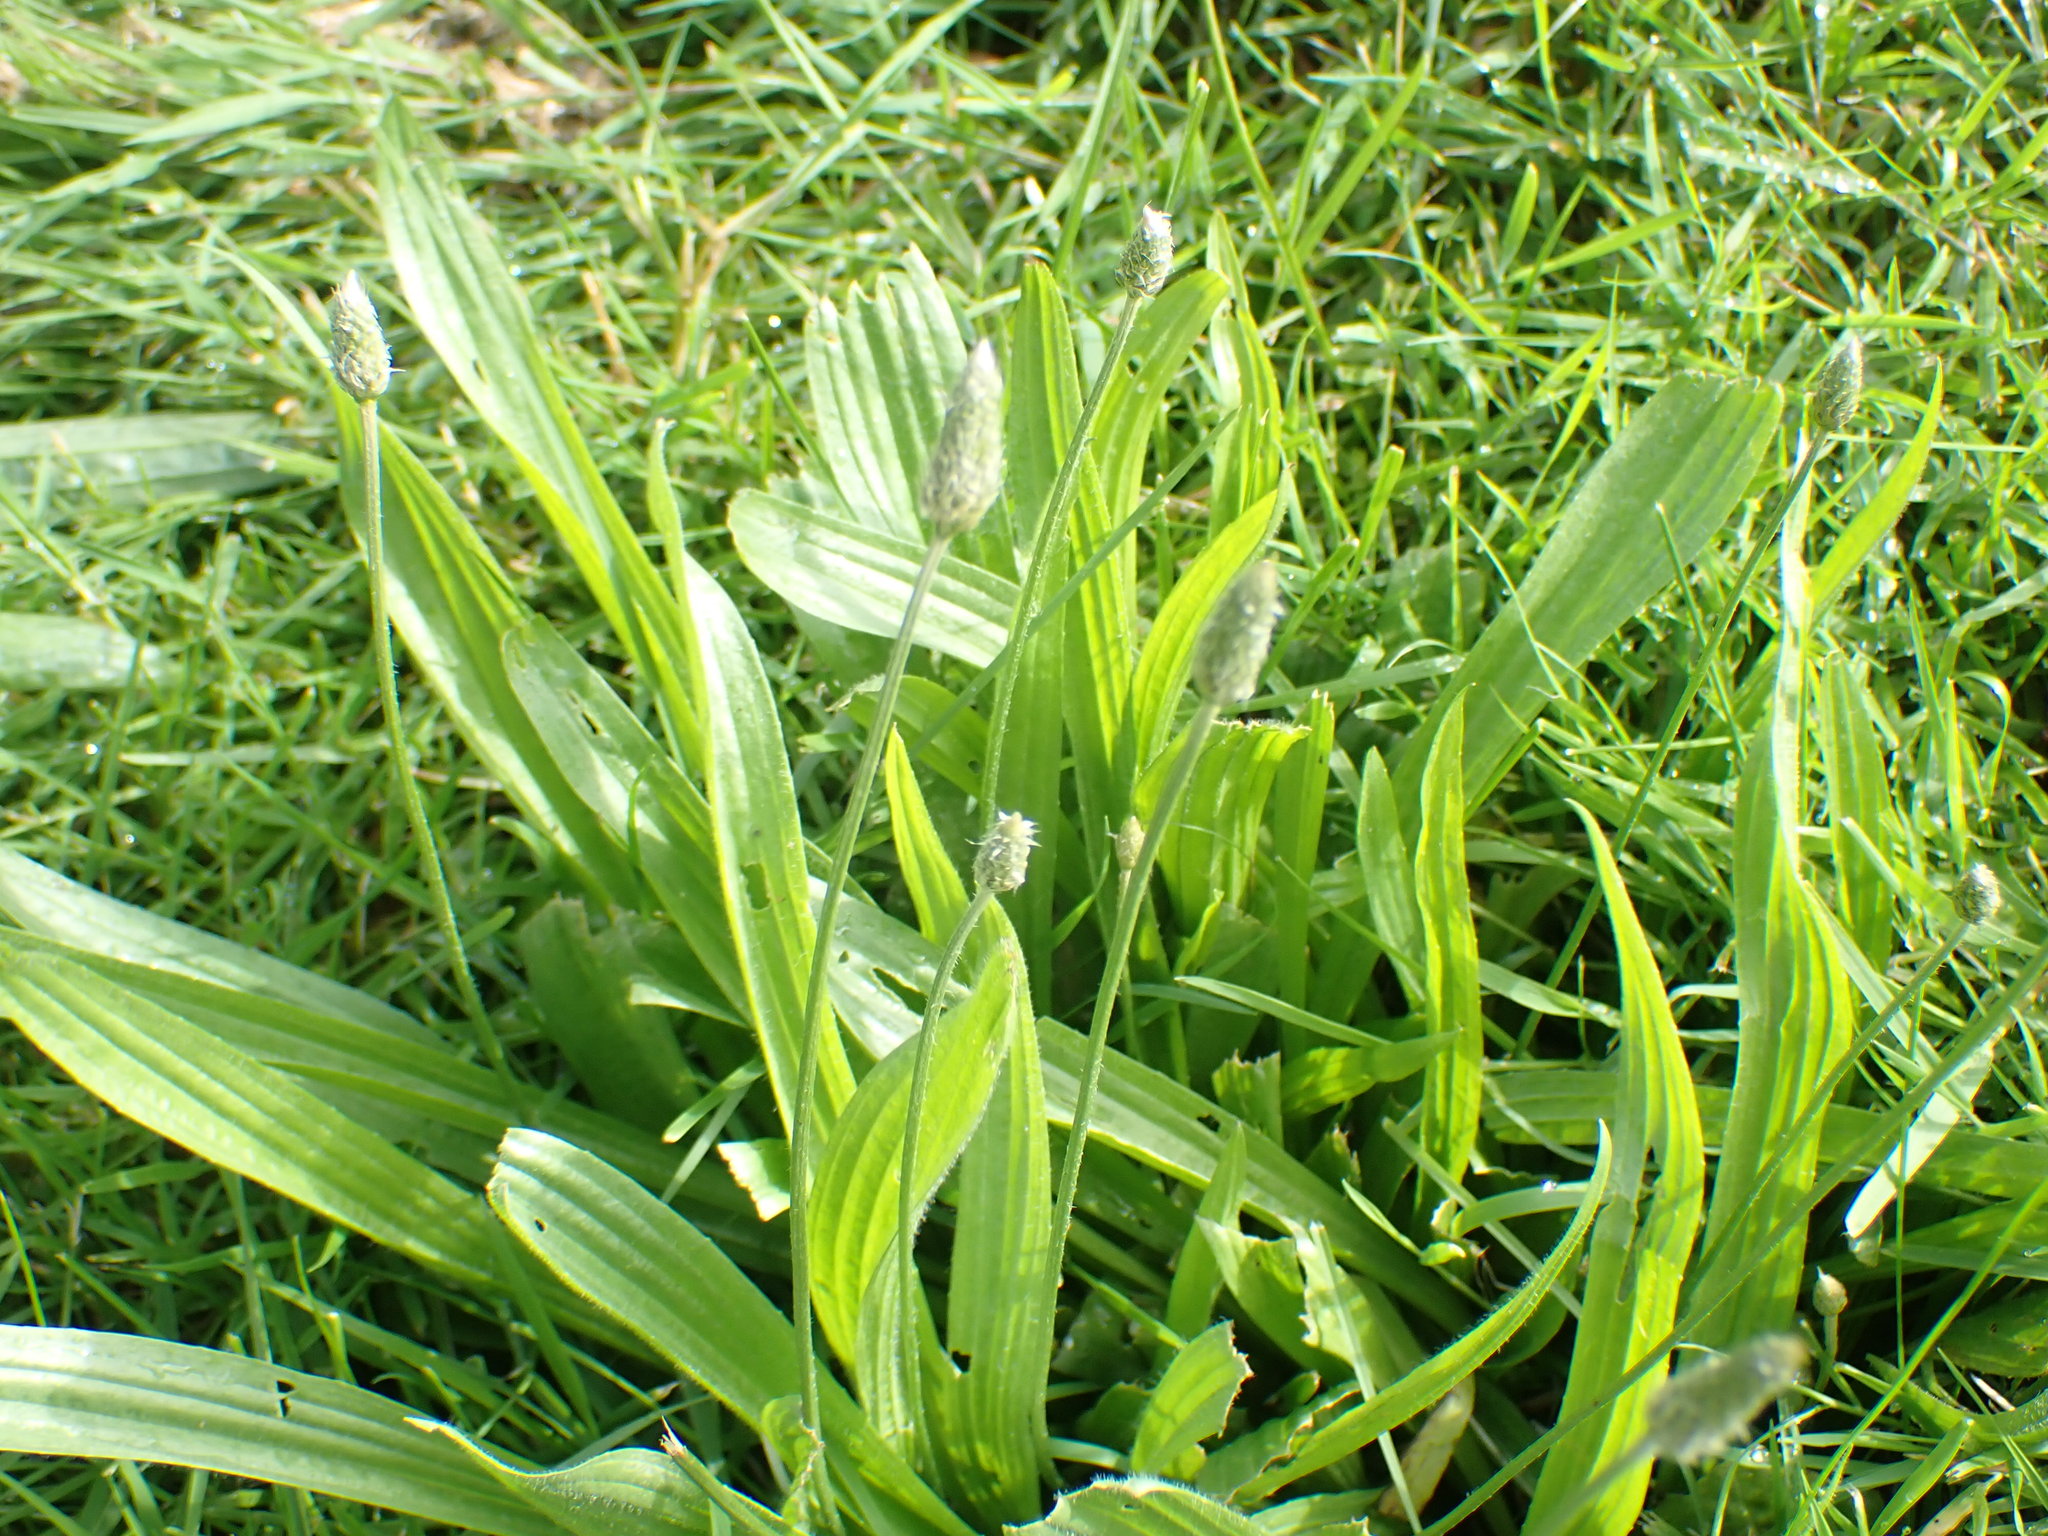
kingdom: Plantae
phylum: Tracheophyta
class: Magnoliopsida
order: Lamiales
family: Plantaginaceae
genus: Plantago
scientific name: Plantago lanceolata
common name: Ribwort plantain
